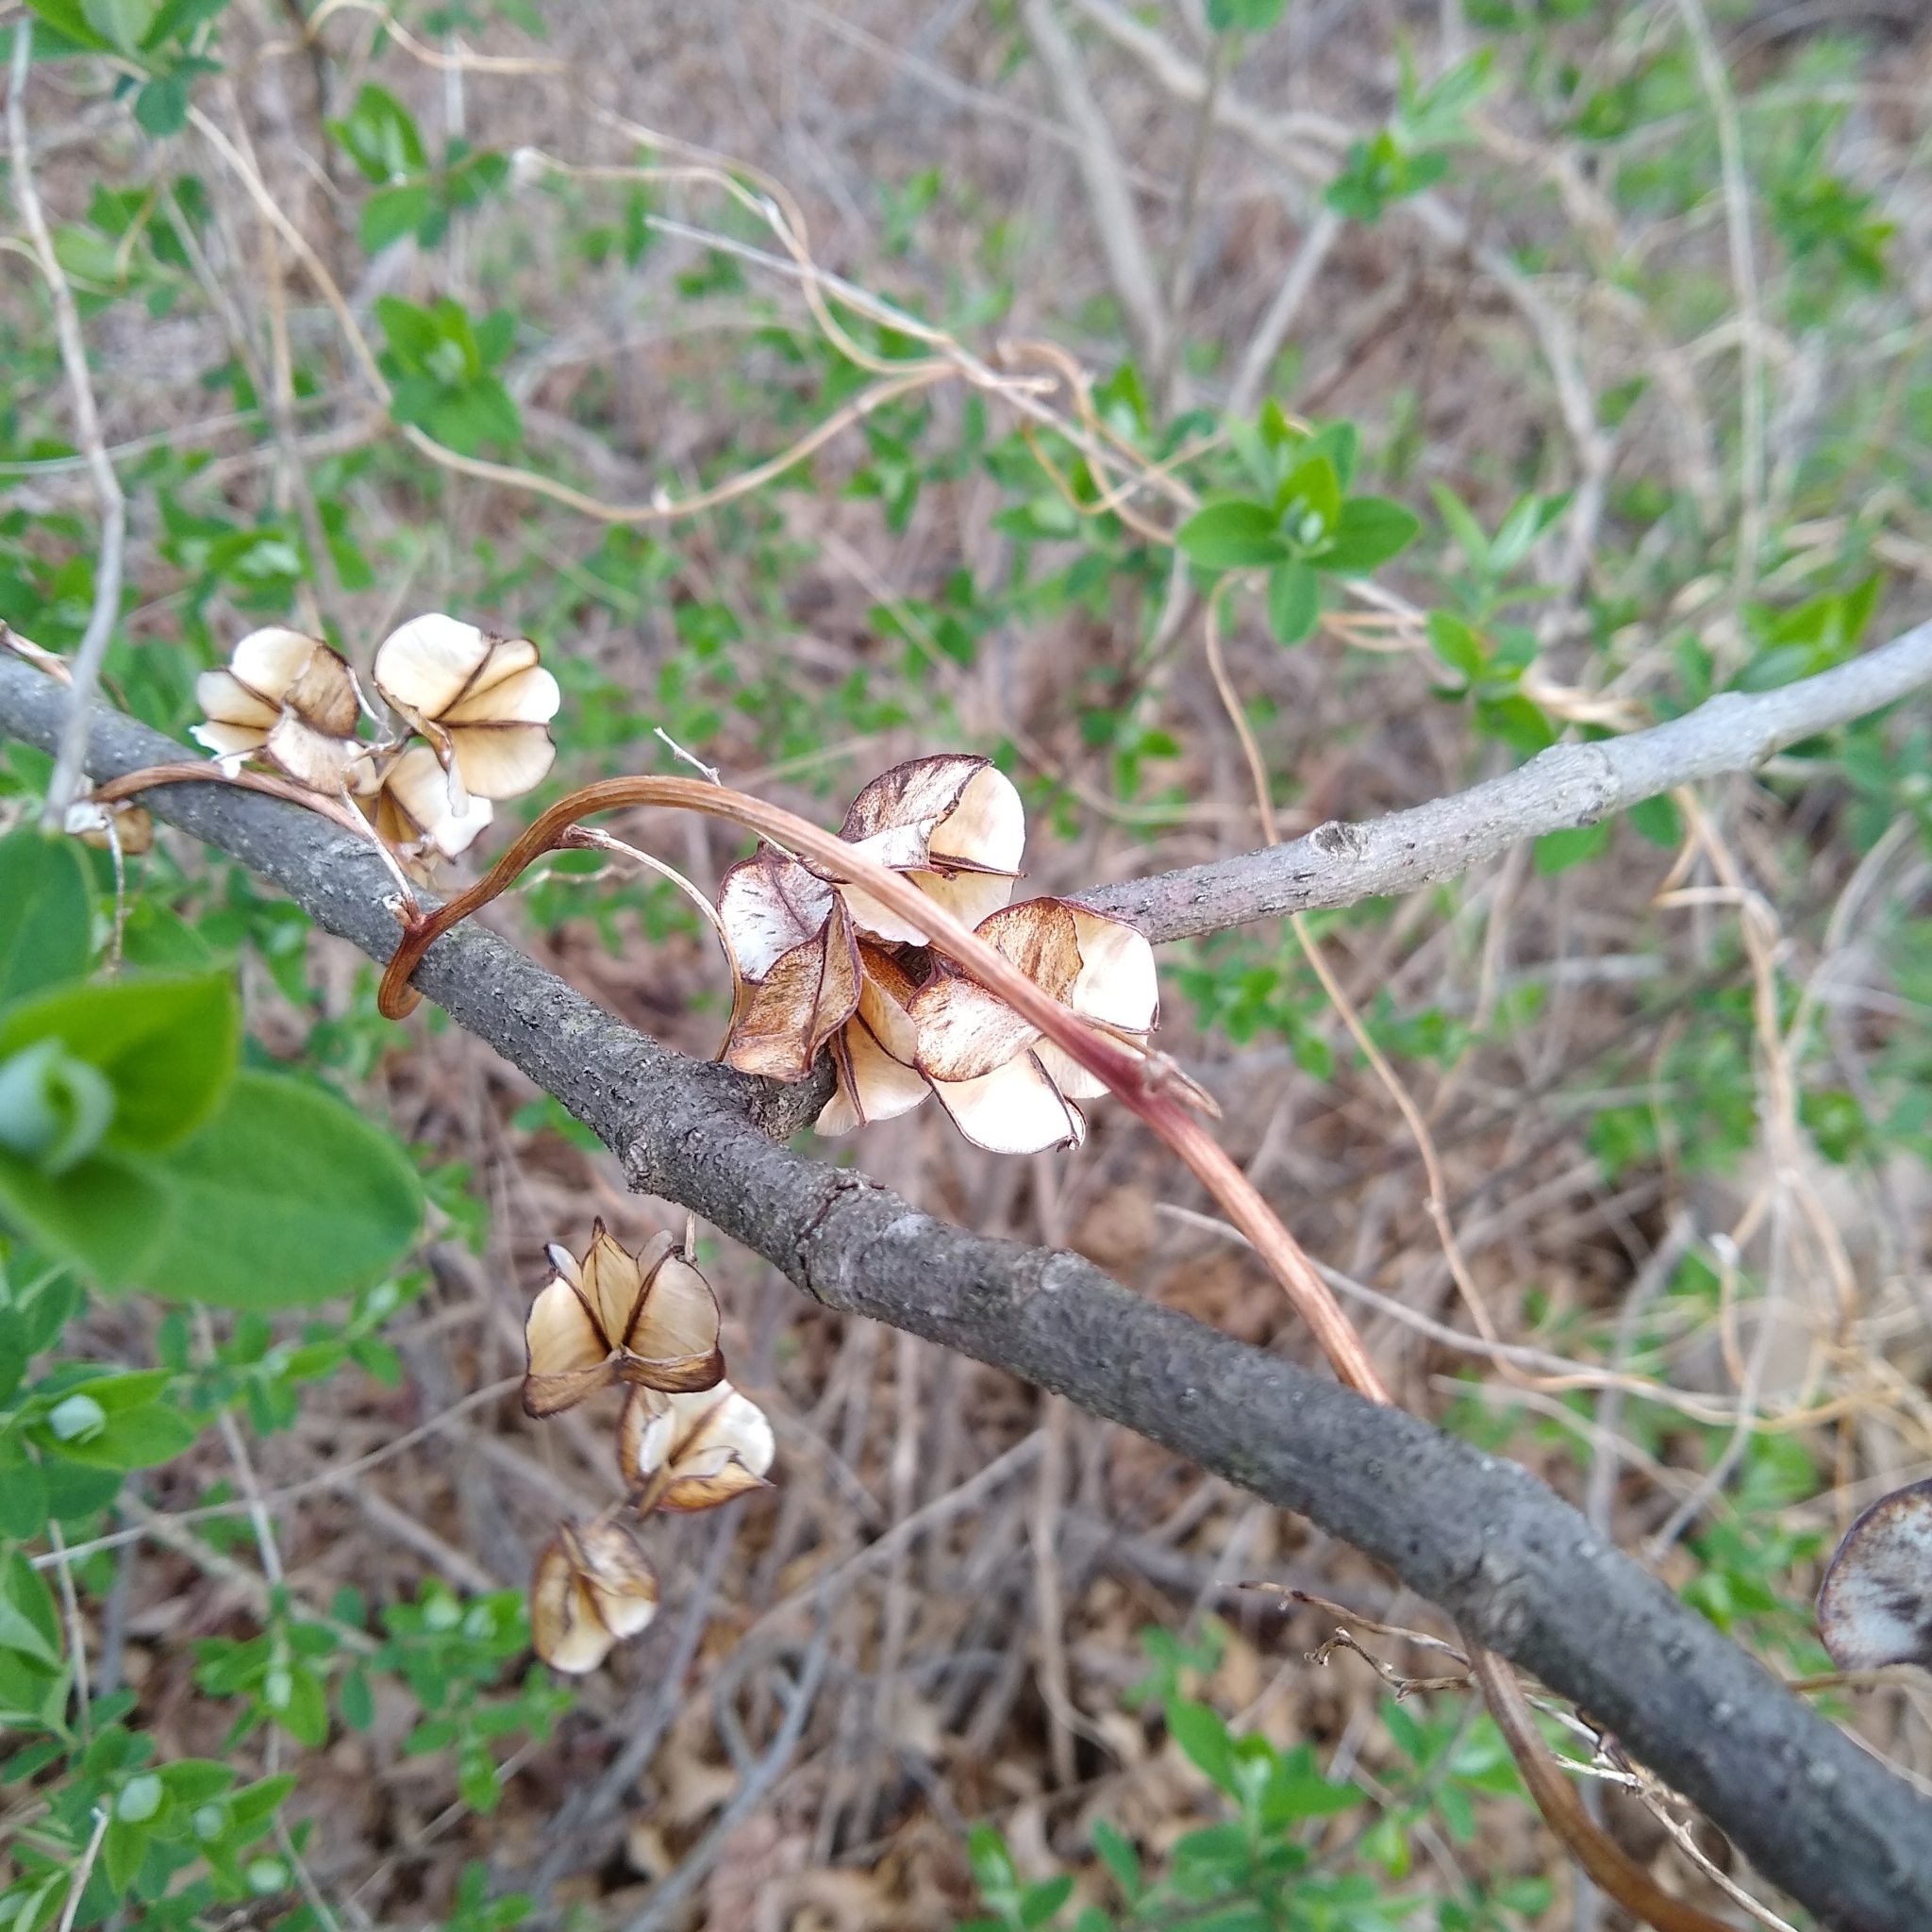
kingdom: Plantae
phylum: Tracheophyta
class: Liliopsida
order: Dioscoreales
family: Dioscoreaceae
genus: Dioscorea
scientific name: Dioscorea villosa
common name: Wild yam
